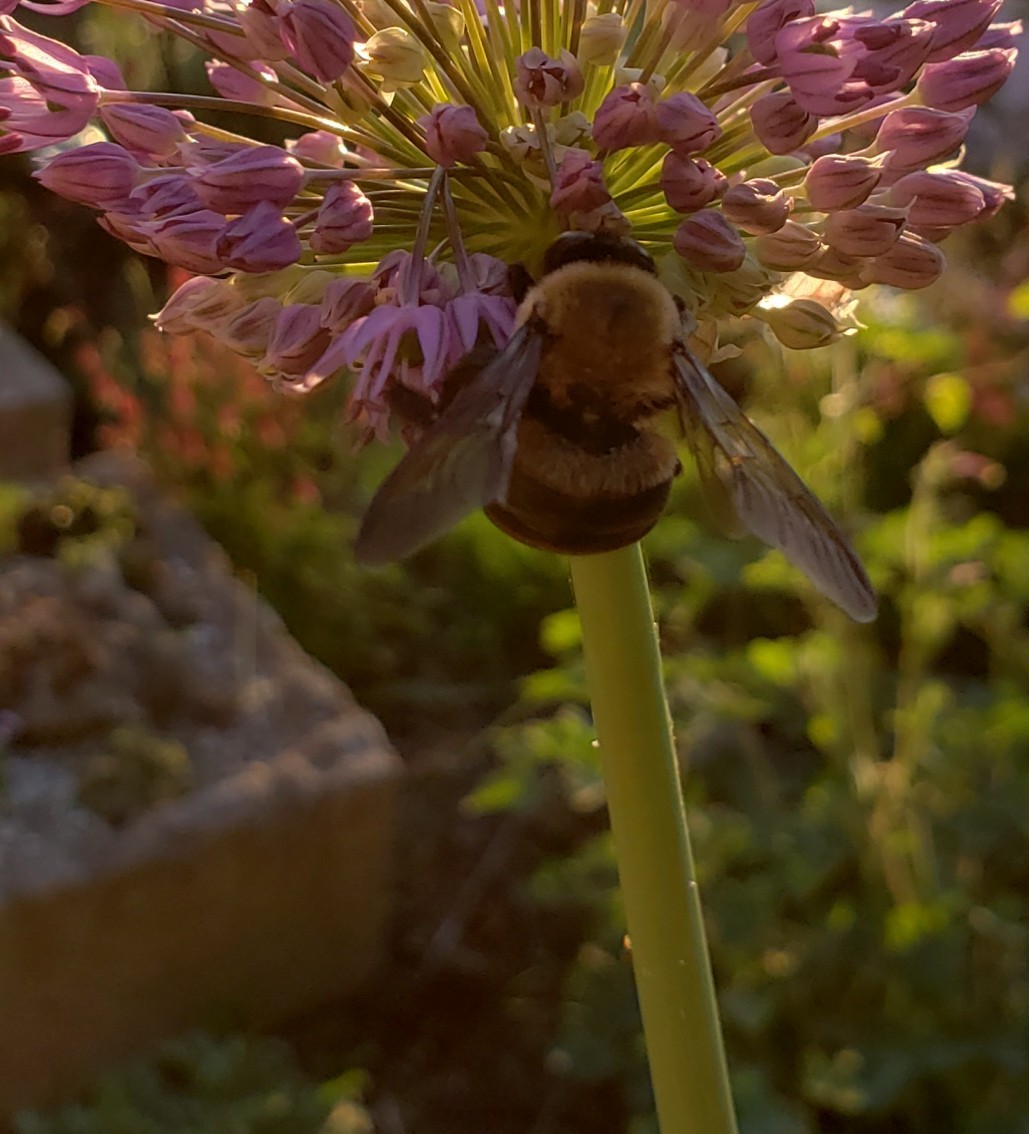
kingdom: Animalia
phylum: Arthropoda
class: Insecta
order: Hymenoptera
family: Apidae
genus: Xylocopa
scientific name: Xylocopa virginica
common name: Carpenter bee
